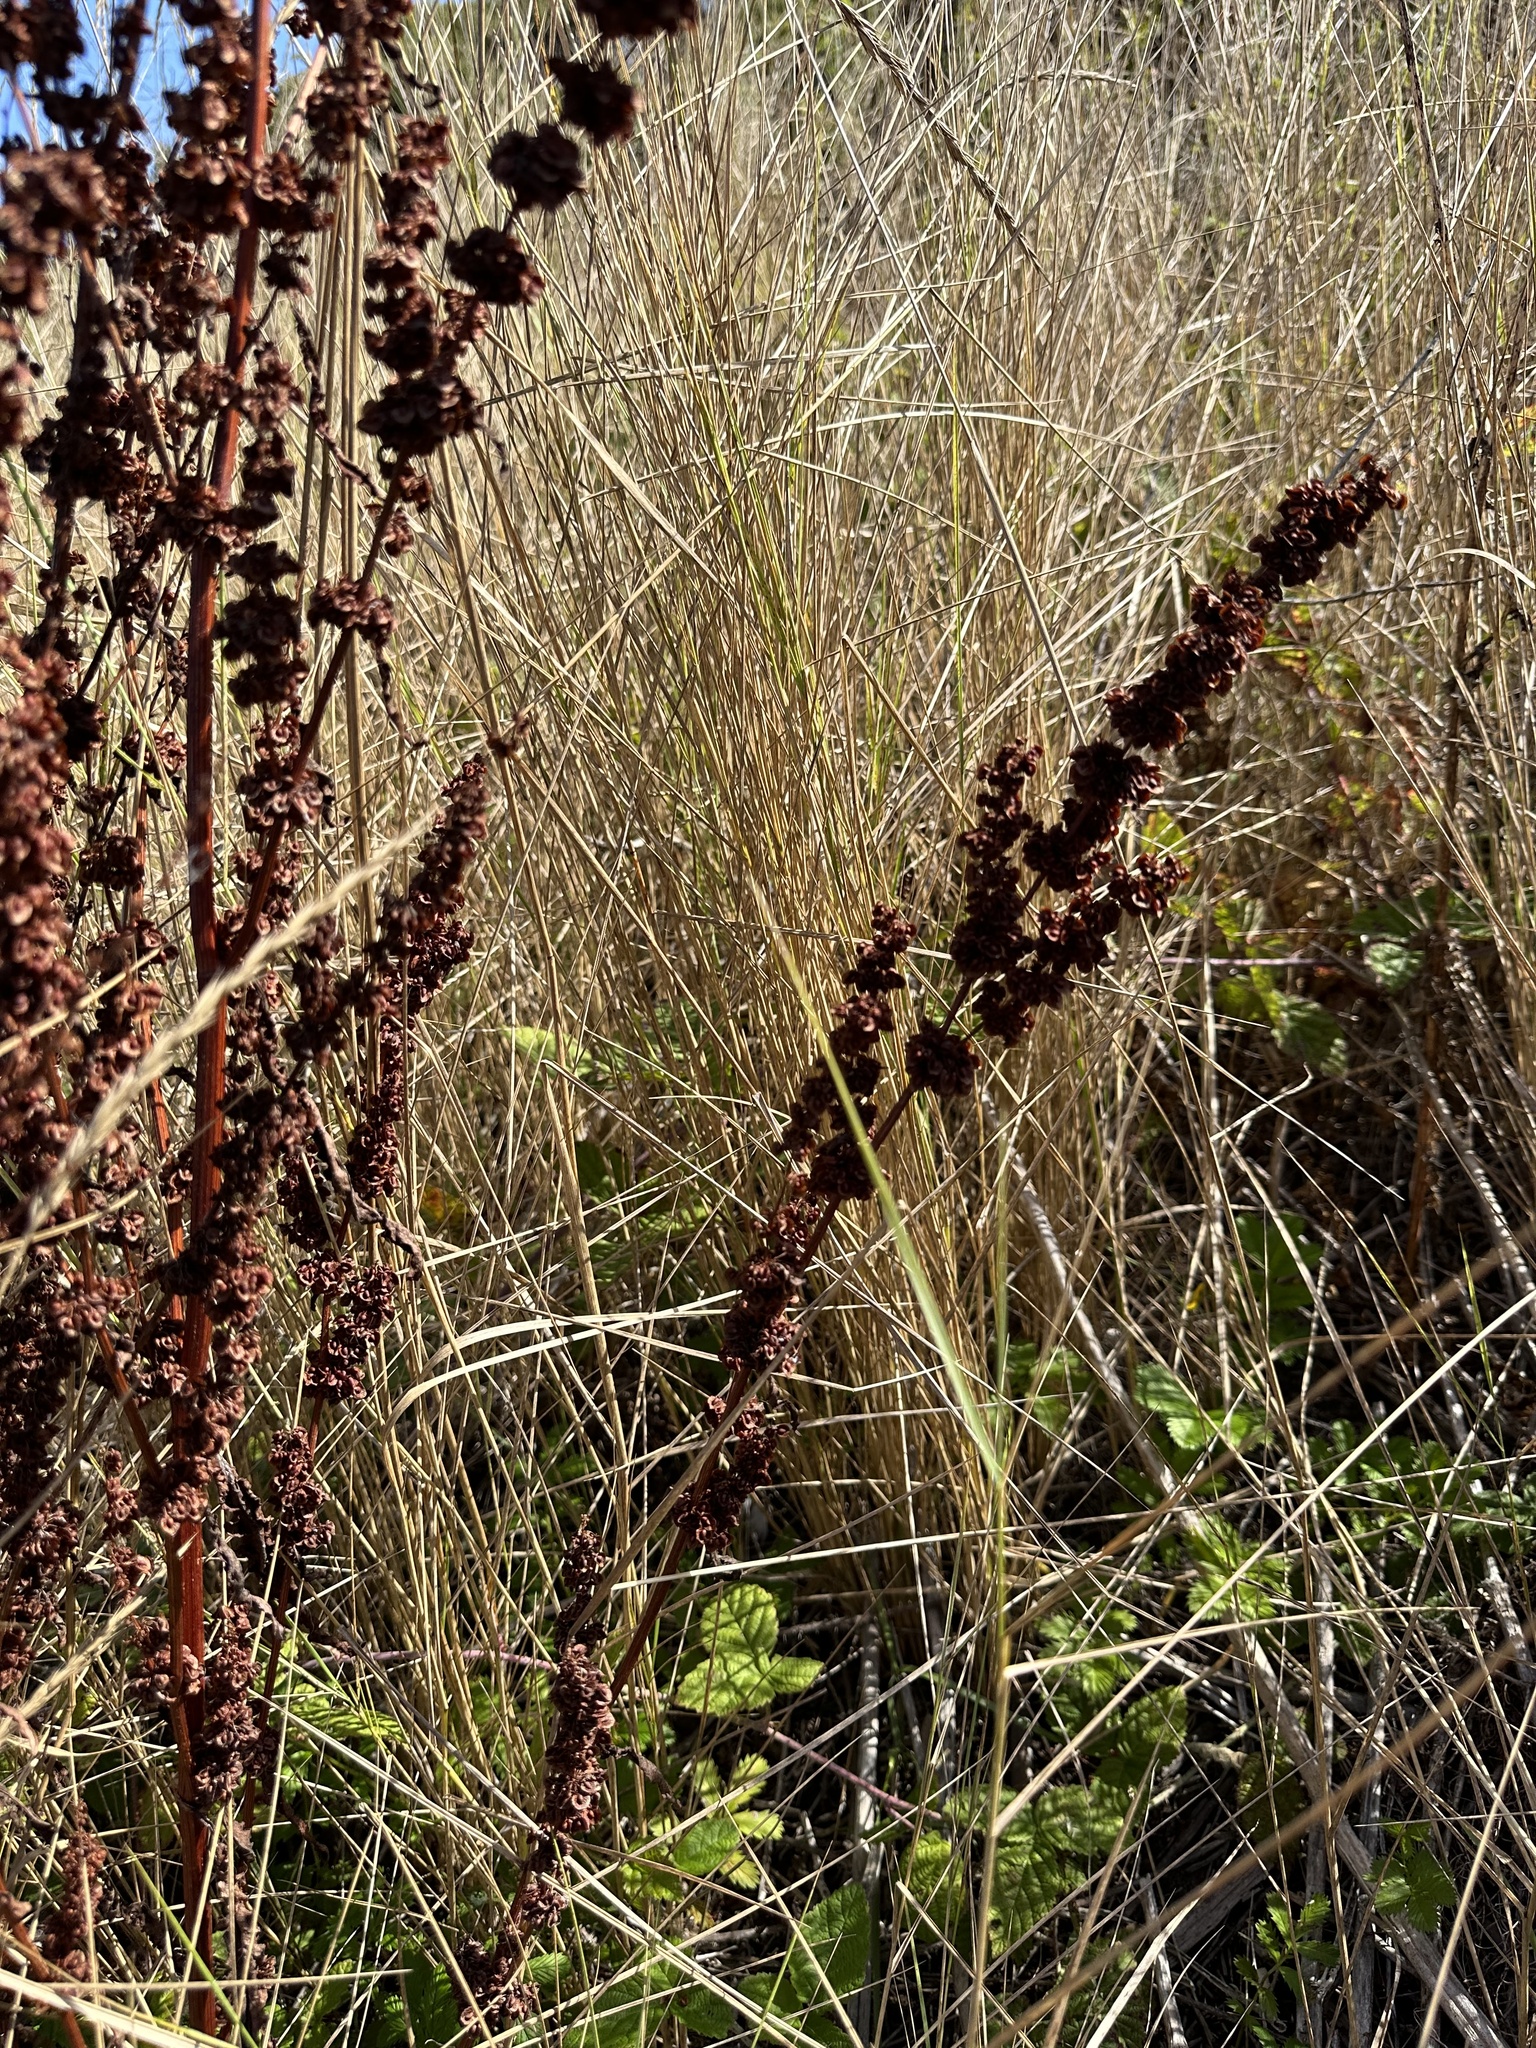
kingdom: Plantae
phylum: Tracheophyta
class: Magnoliopsida
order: Caryophyllales
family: Polygonaceae
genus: Rumex
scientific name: Rumex conglomeratus
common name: Clustered dock
